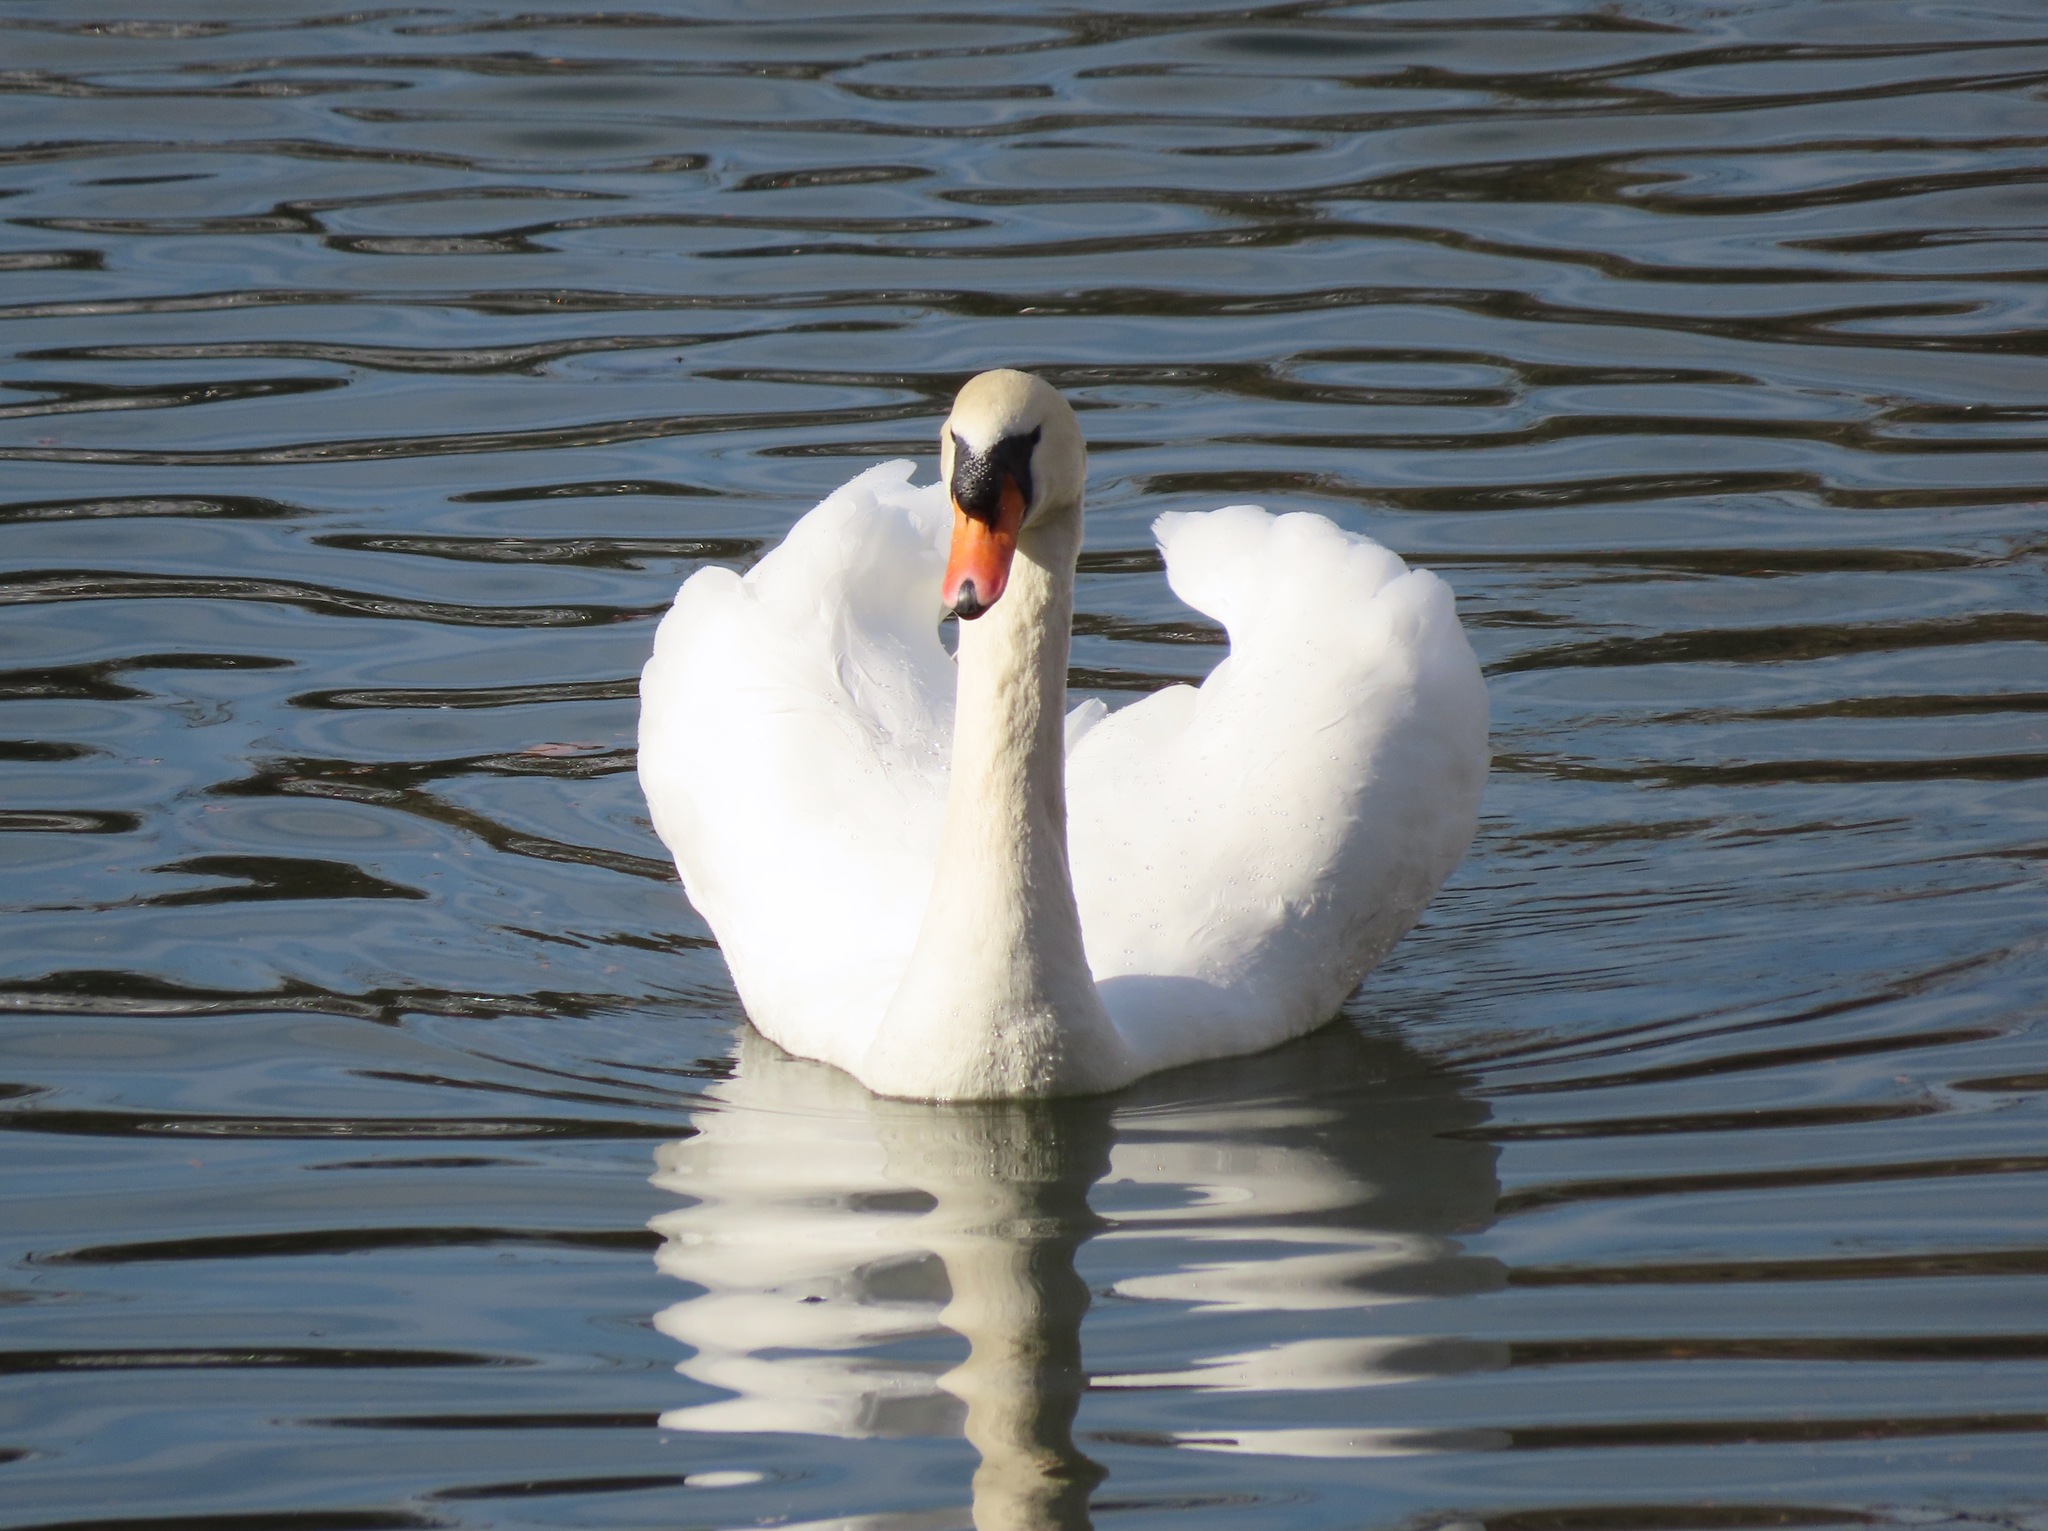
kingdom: Animalia
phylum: Chordata
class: Aves
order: Anseriformes
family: Anatidae
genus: Cygnus
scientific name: Cygnus olor
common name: Mute swan
